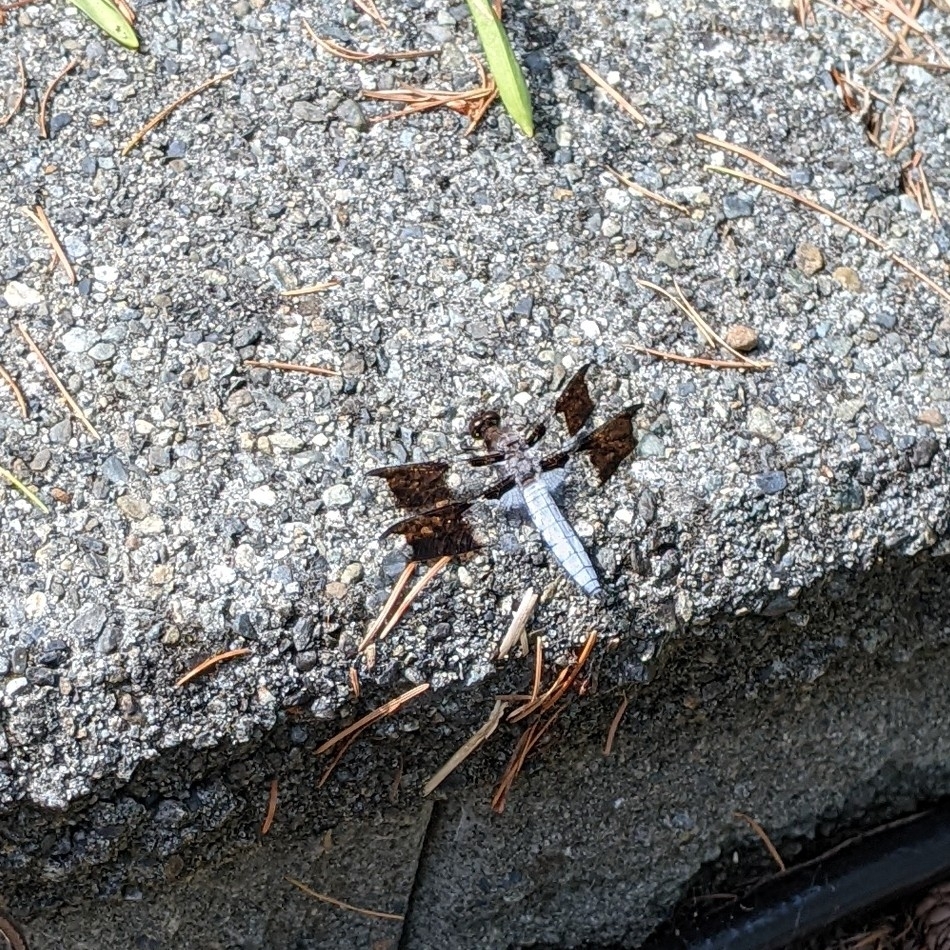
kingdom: Animalia
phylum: Arthropoda
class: Insecta
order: Odonata
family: Libellulidae
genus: Plathemis
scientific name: Plathemis lydia
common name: Common whitetail
